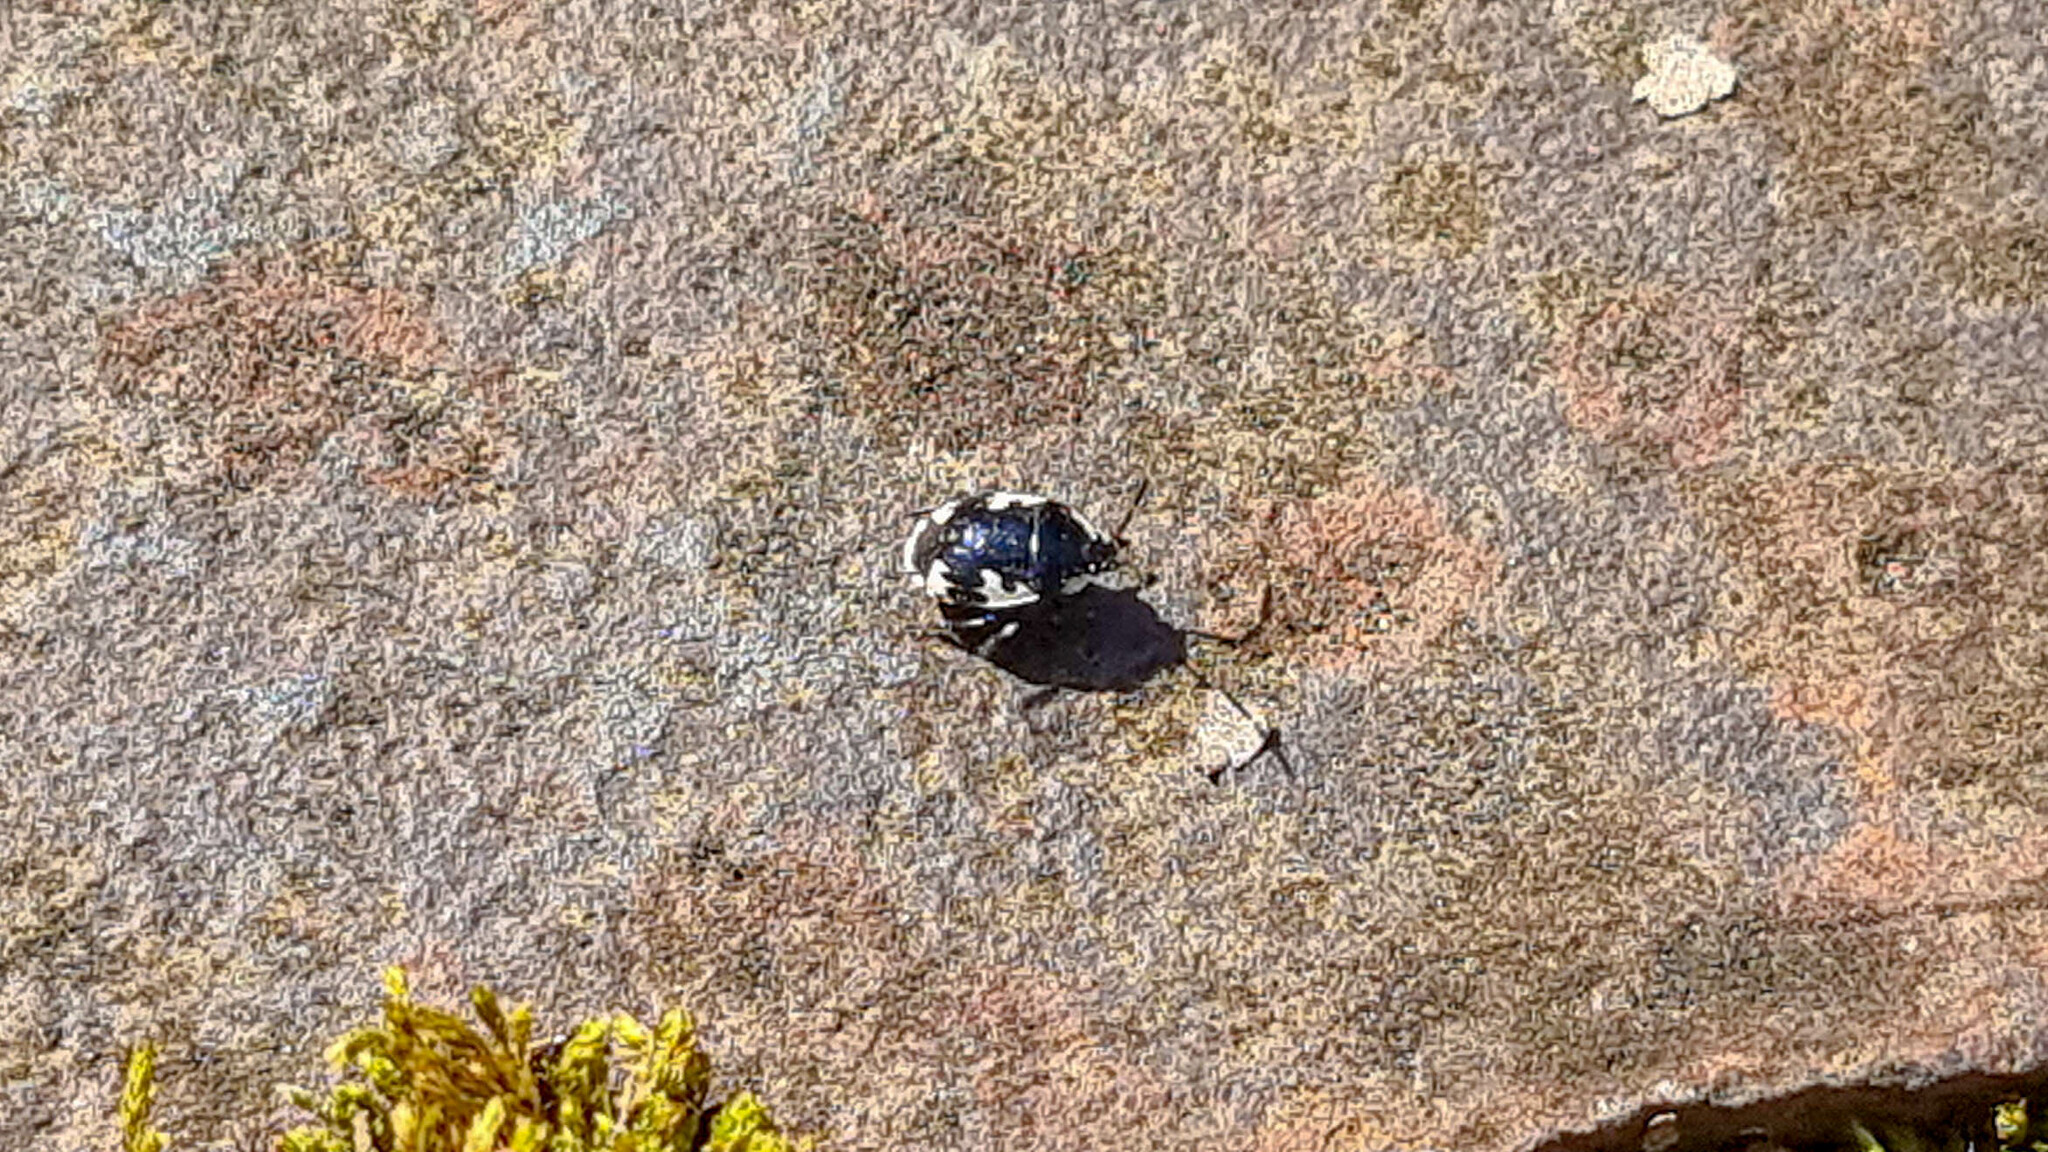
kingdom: Animalia
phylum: Arthropoda
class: Insecta
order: Hemiptera
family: Cydnidae
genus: Tritomegas
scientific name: Tritomegas bicolor
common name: Pied shieldbug
